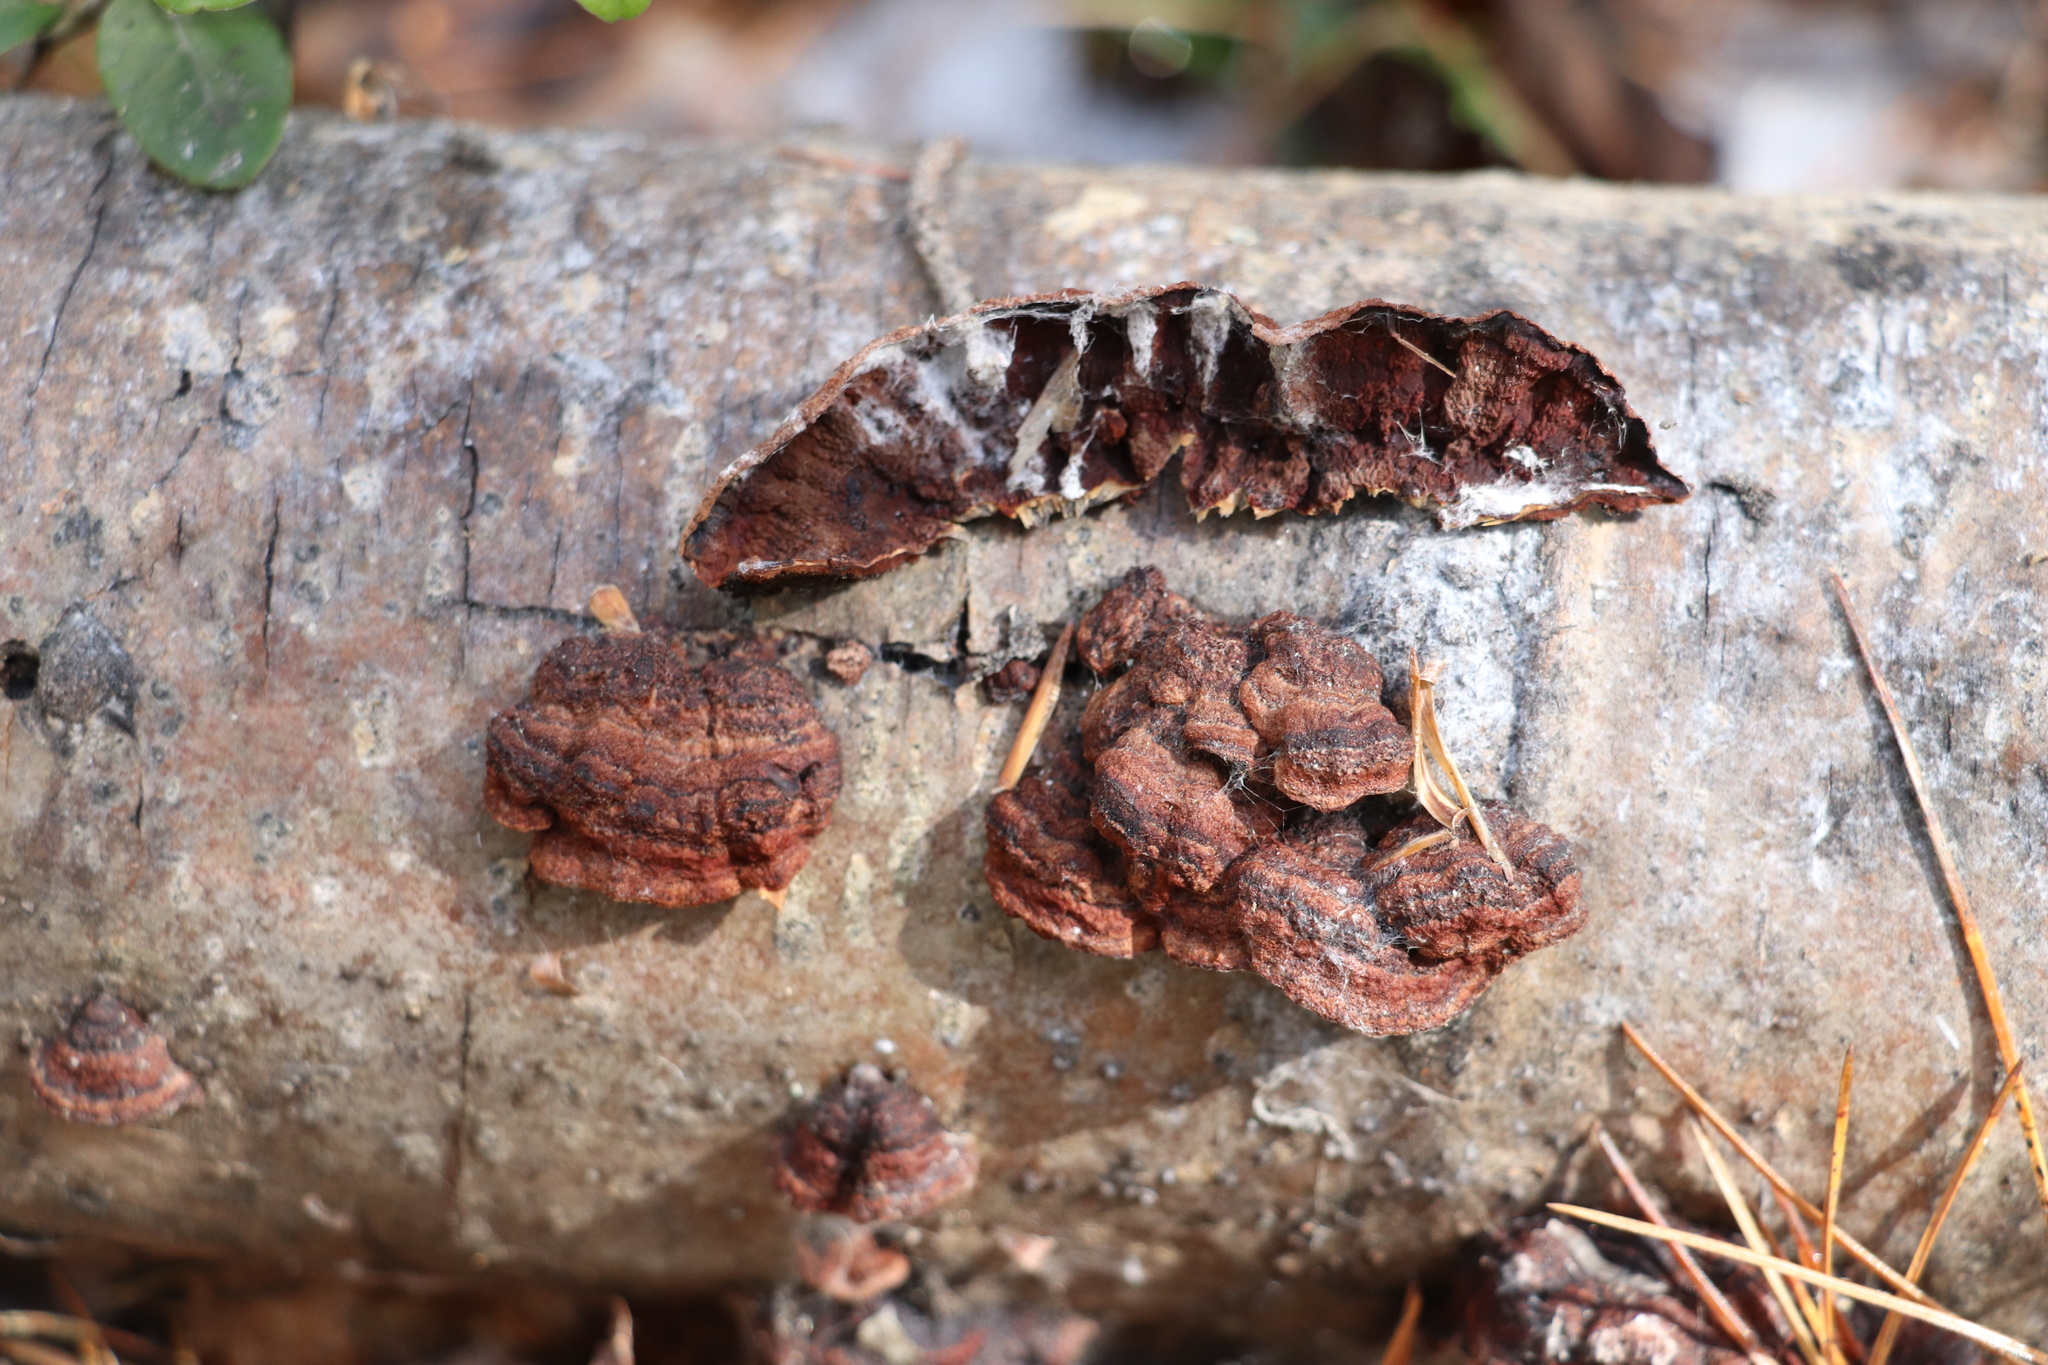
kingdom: Fungi
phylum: Basidiomycota
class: Agaricomycetes
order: Corticiales
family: Punctulariaceae
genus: Punctularia
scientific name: Punctularia strigosozonata
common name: White-rot fungus
